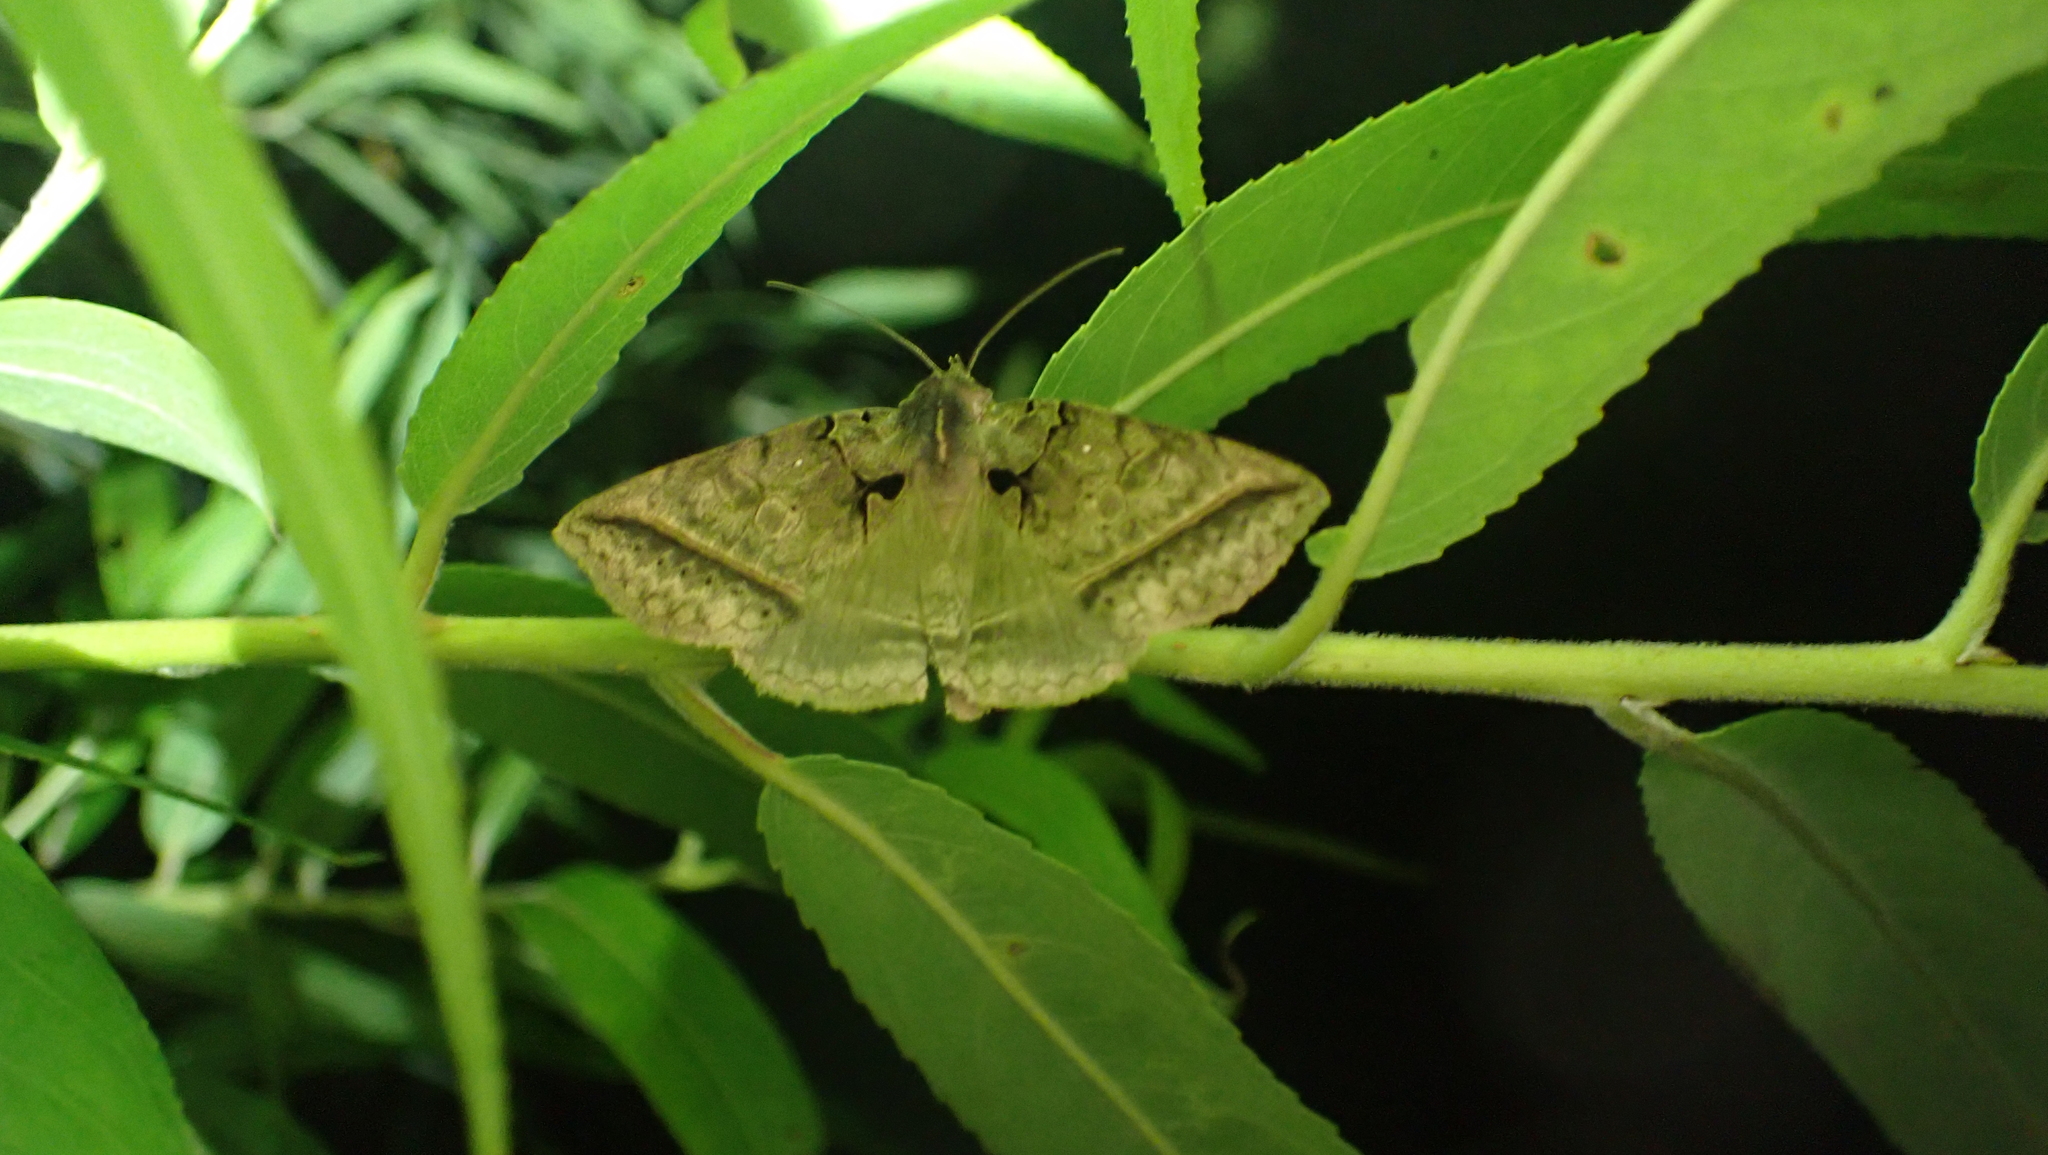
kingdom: Animalia
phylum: Arthropoda
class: Insecta
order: Lepidoptera
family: Erebidae
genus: Celiptera
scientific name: Celiptera frustulum
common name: Black bit moth
